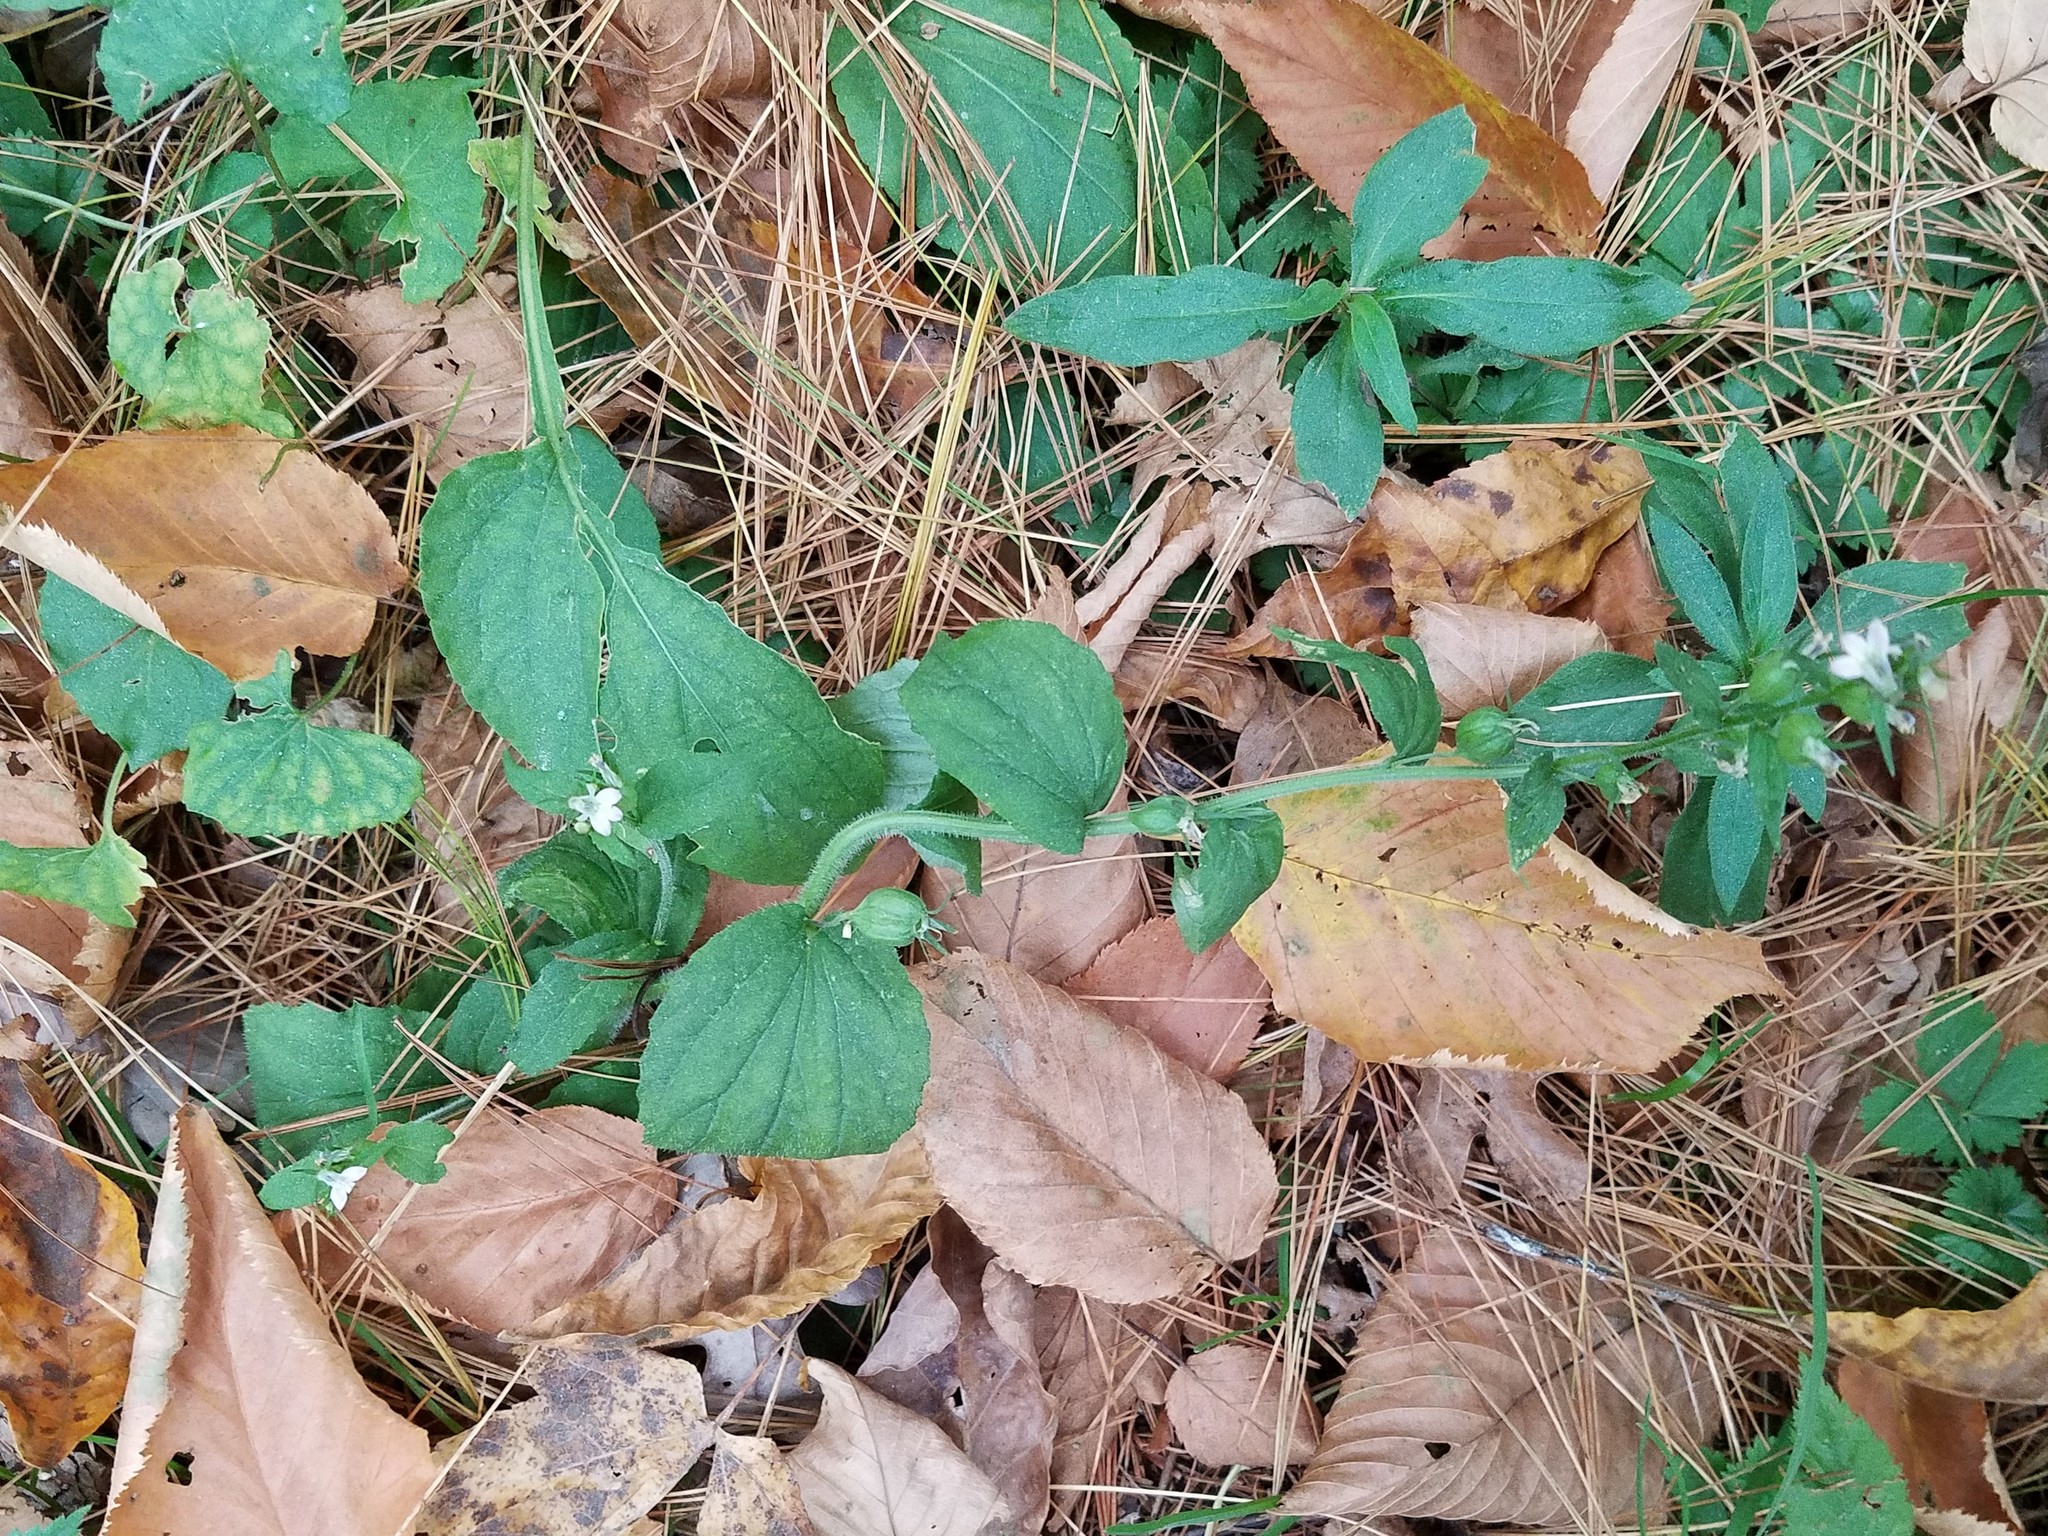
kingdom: Plantae
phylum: Tracheophyta
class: Magnoliopsida
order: Asterales
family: Campanulaceae
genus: Lobelia
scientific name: Lobelia inflata
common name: Indian tobacco
